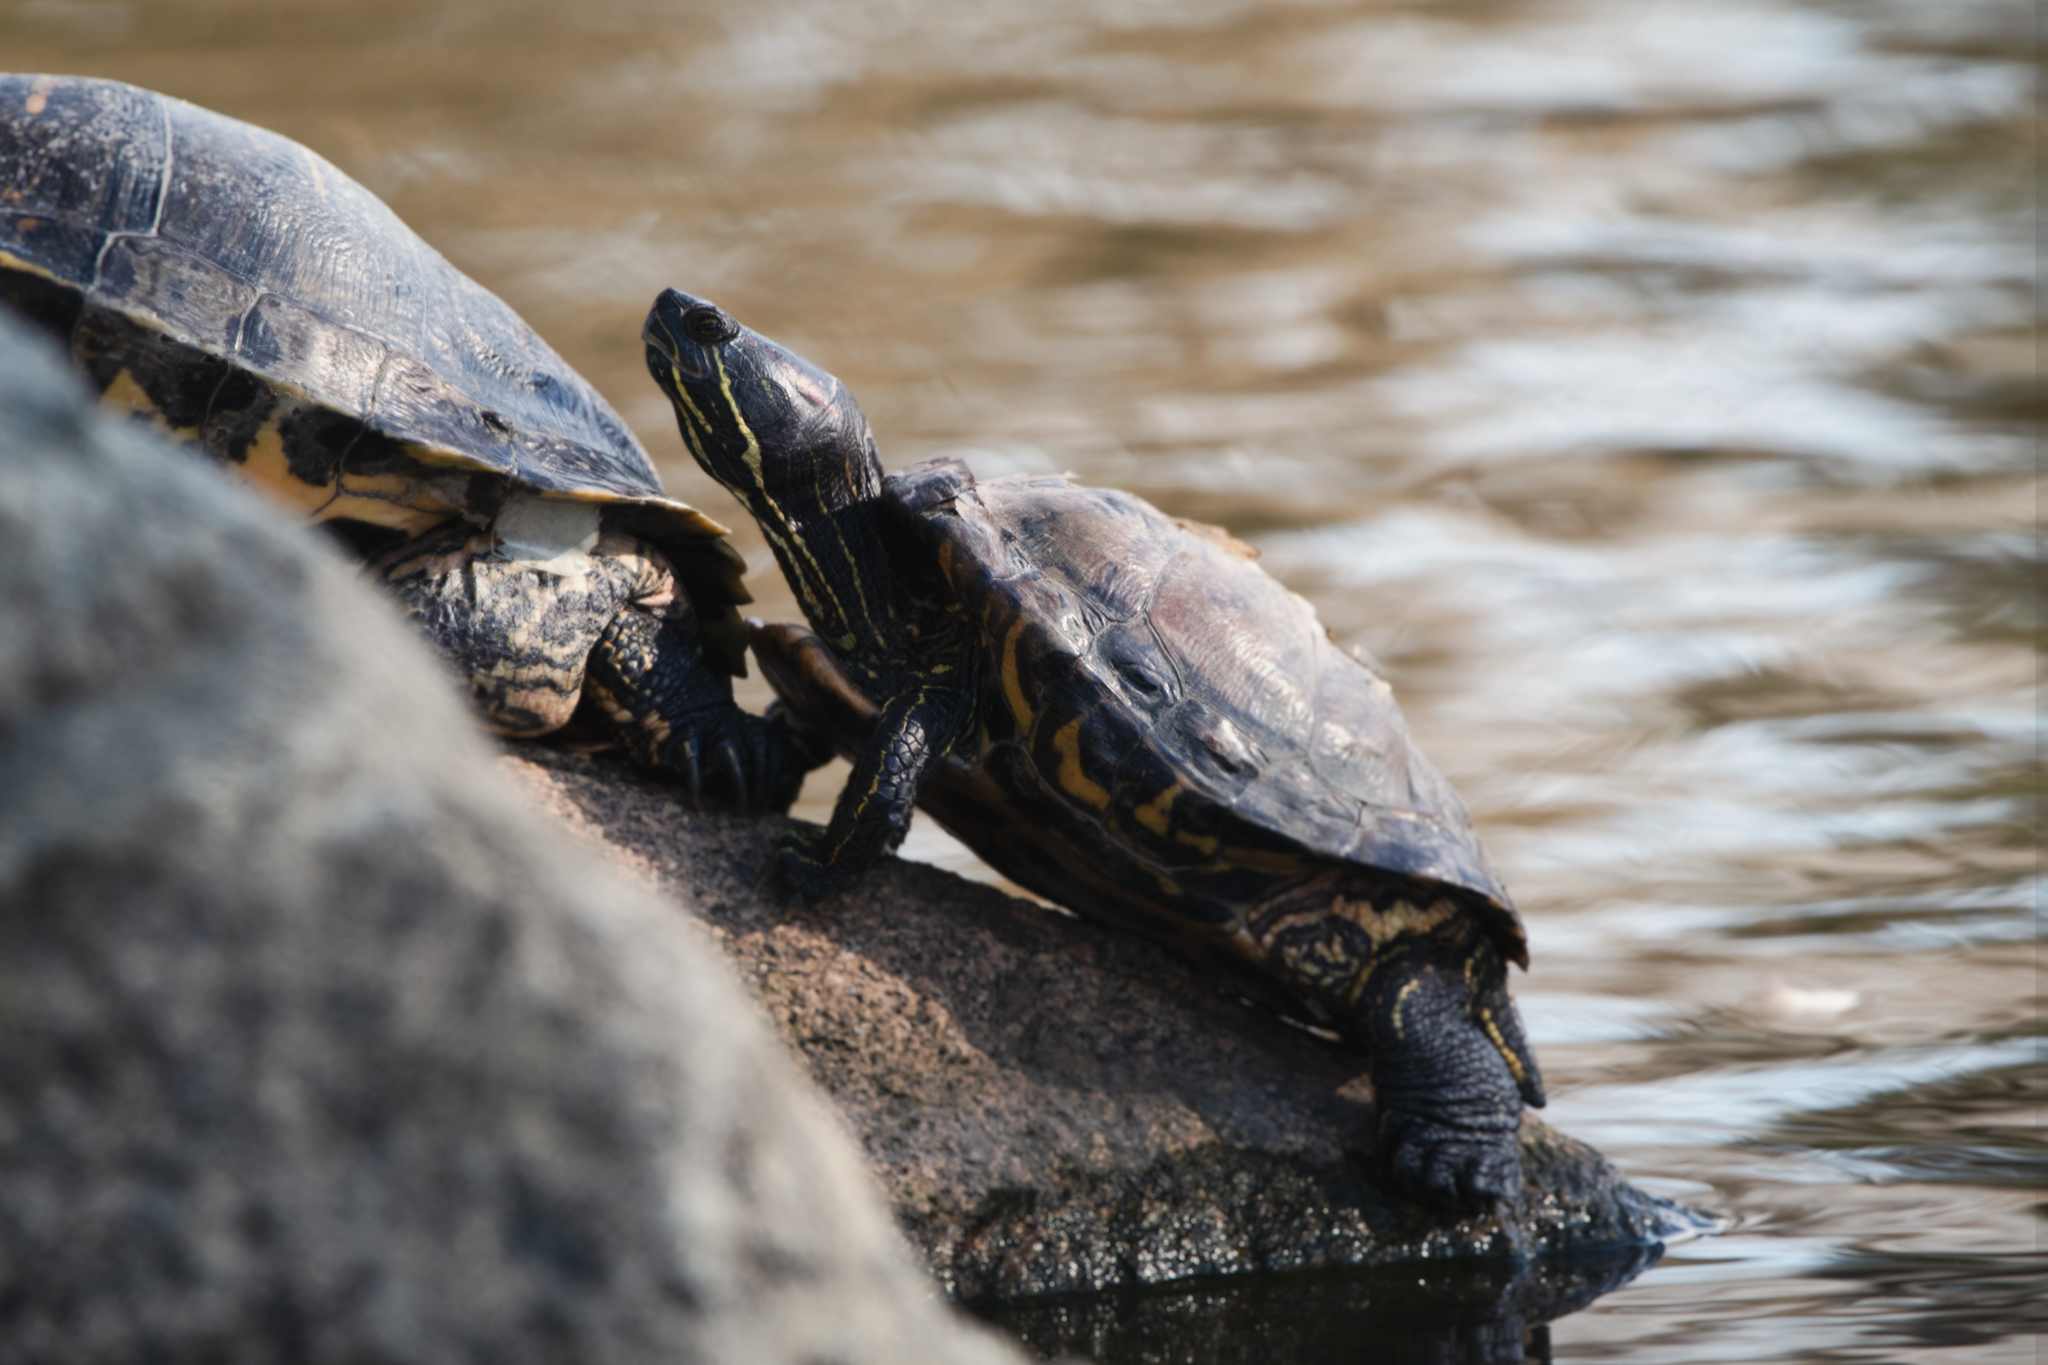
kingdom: Animalia
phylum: Chordata
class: Testudines
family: Emydidae
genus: Trachemys
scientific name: Trachemys scripta
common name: Slider
